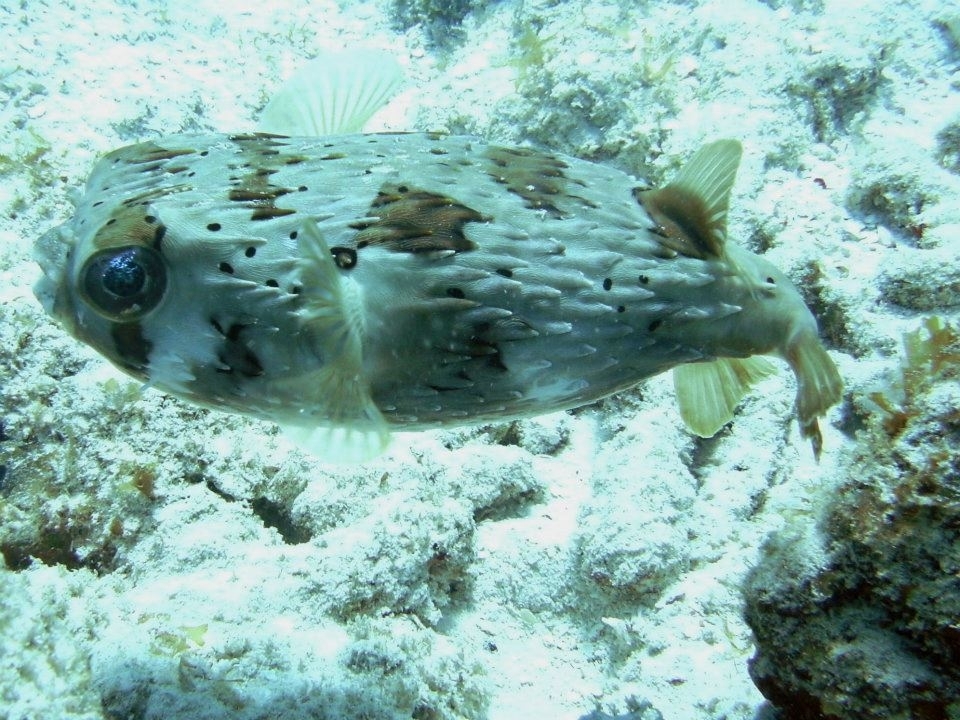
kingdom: Animalia
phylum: Chordata
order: Tetraodontiformes
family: Diodontidae
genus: Diodon
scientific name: Diodon holocanthus
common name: Balloonfish
